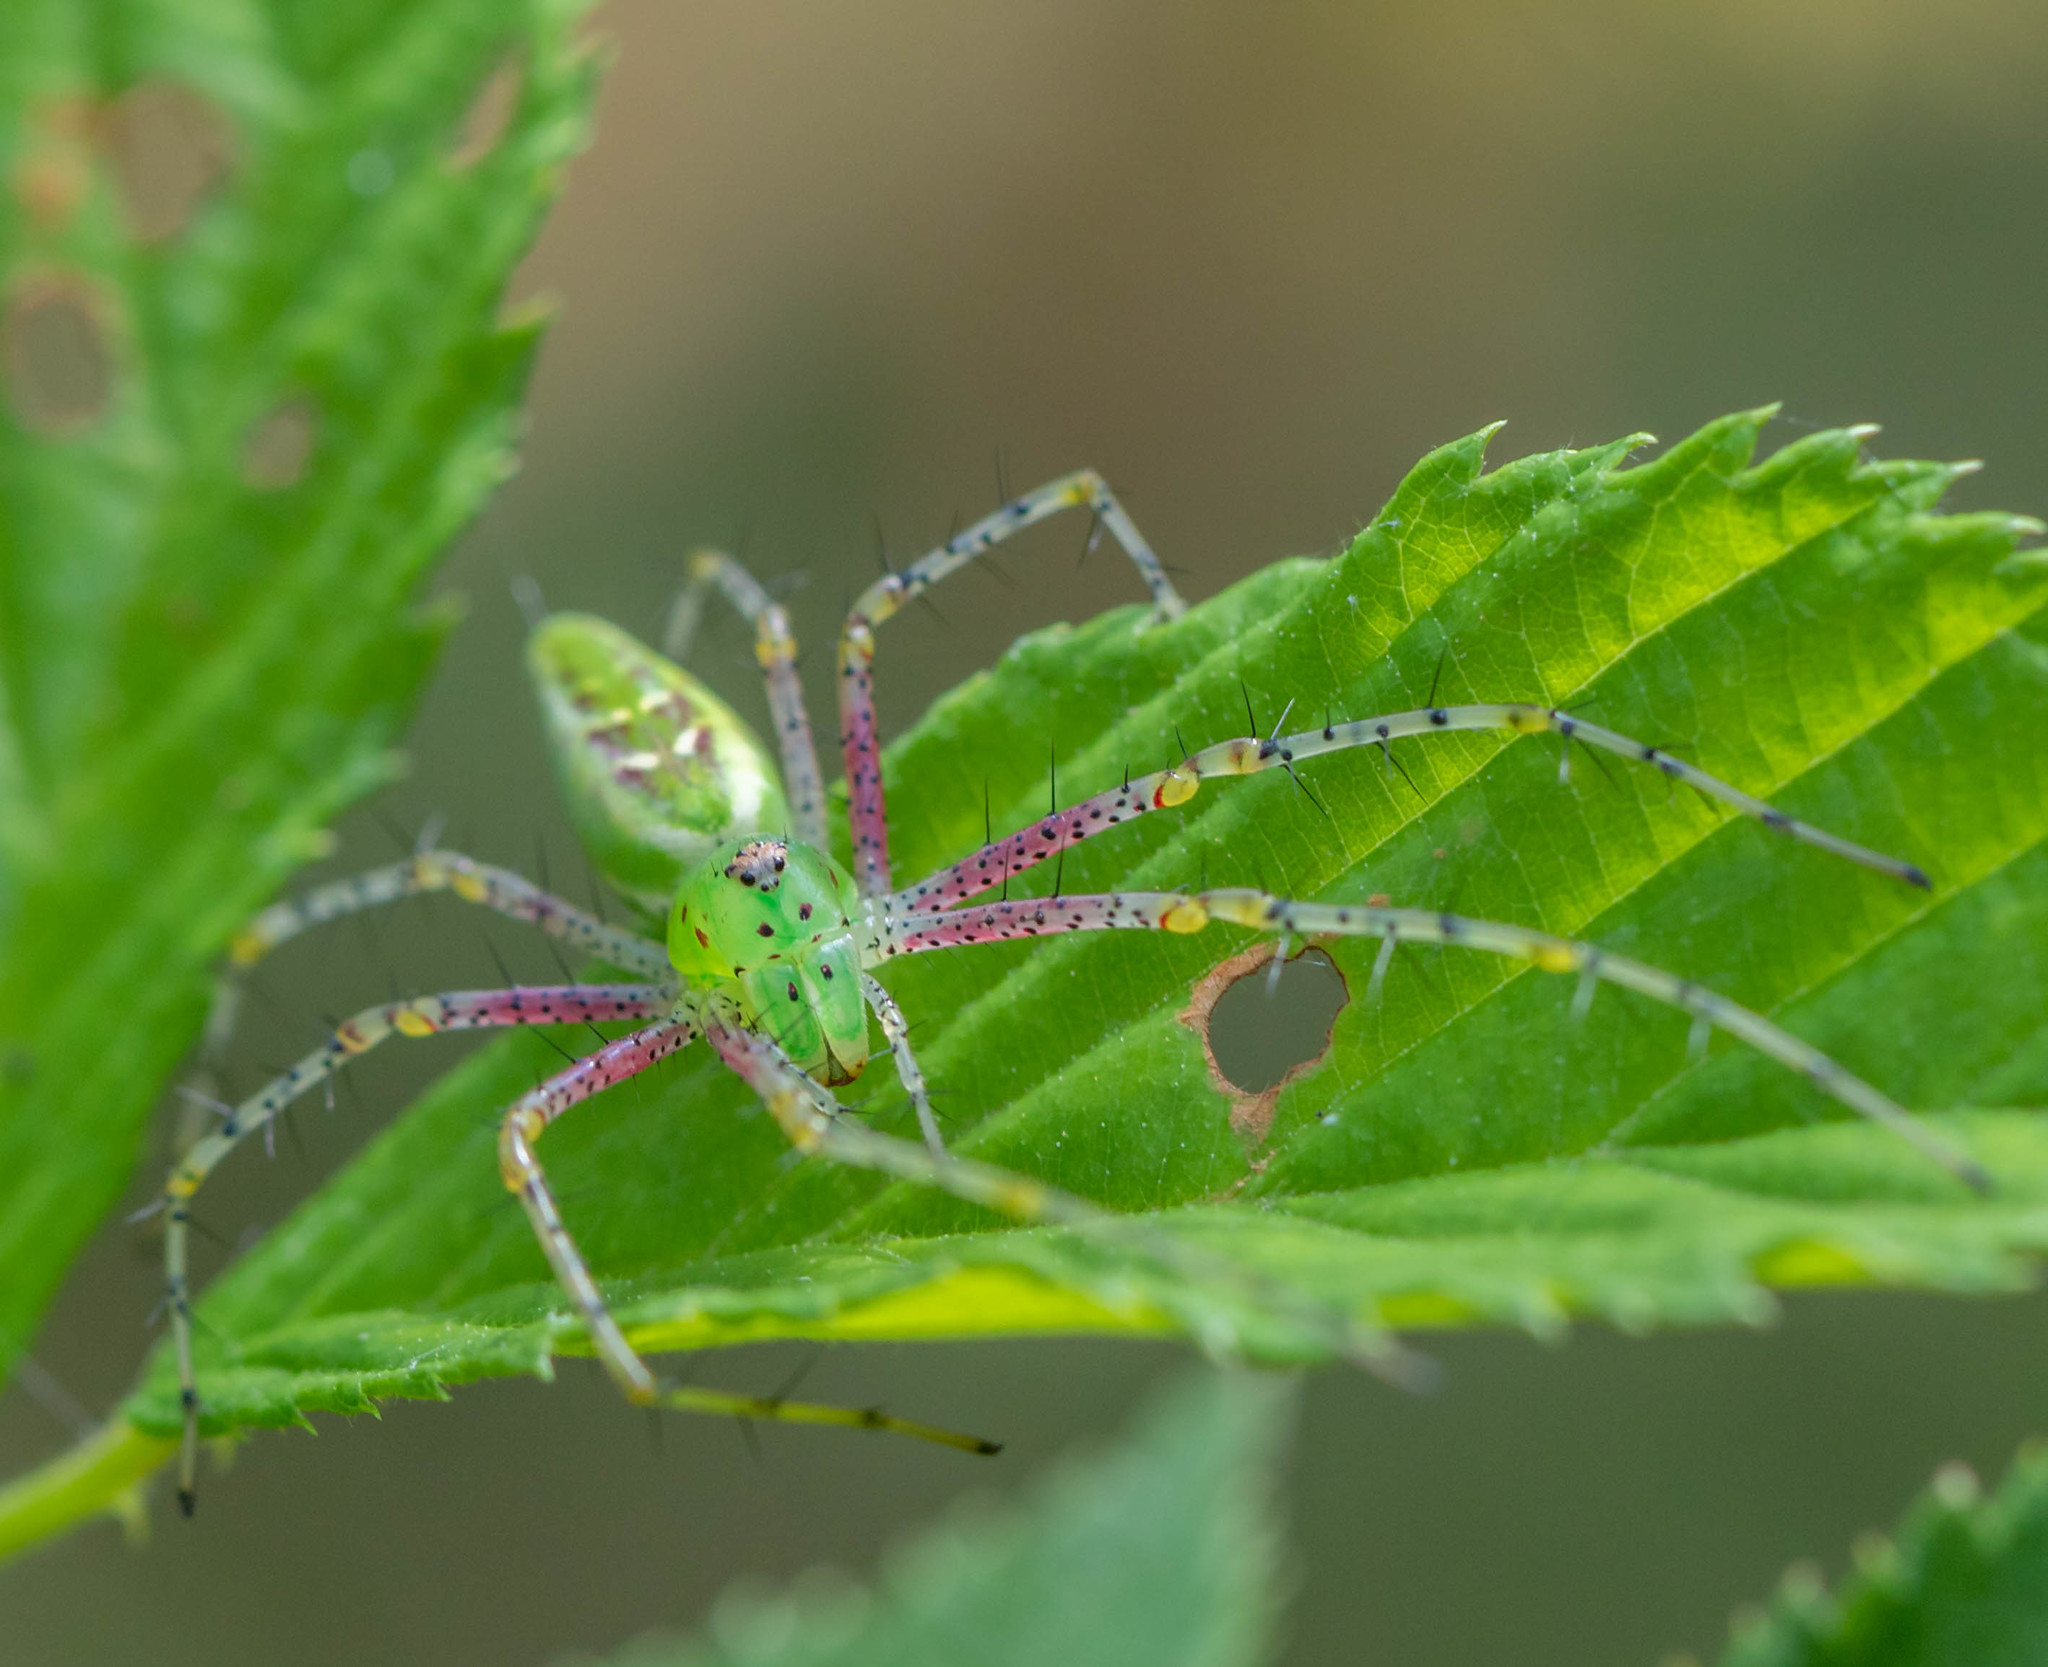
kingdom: Animalia
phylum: Arthropoda
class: Arachnida
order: Araneae
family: Oxyopidae
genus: Peucetia
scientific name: Peucetia viridans
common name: Lynx spiders
